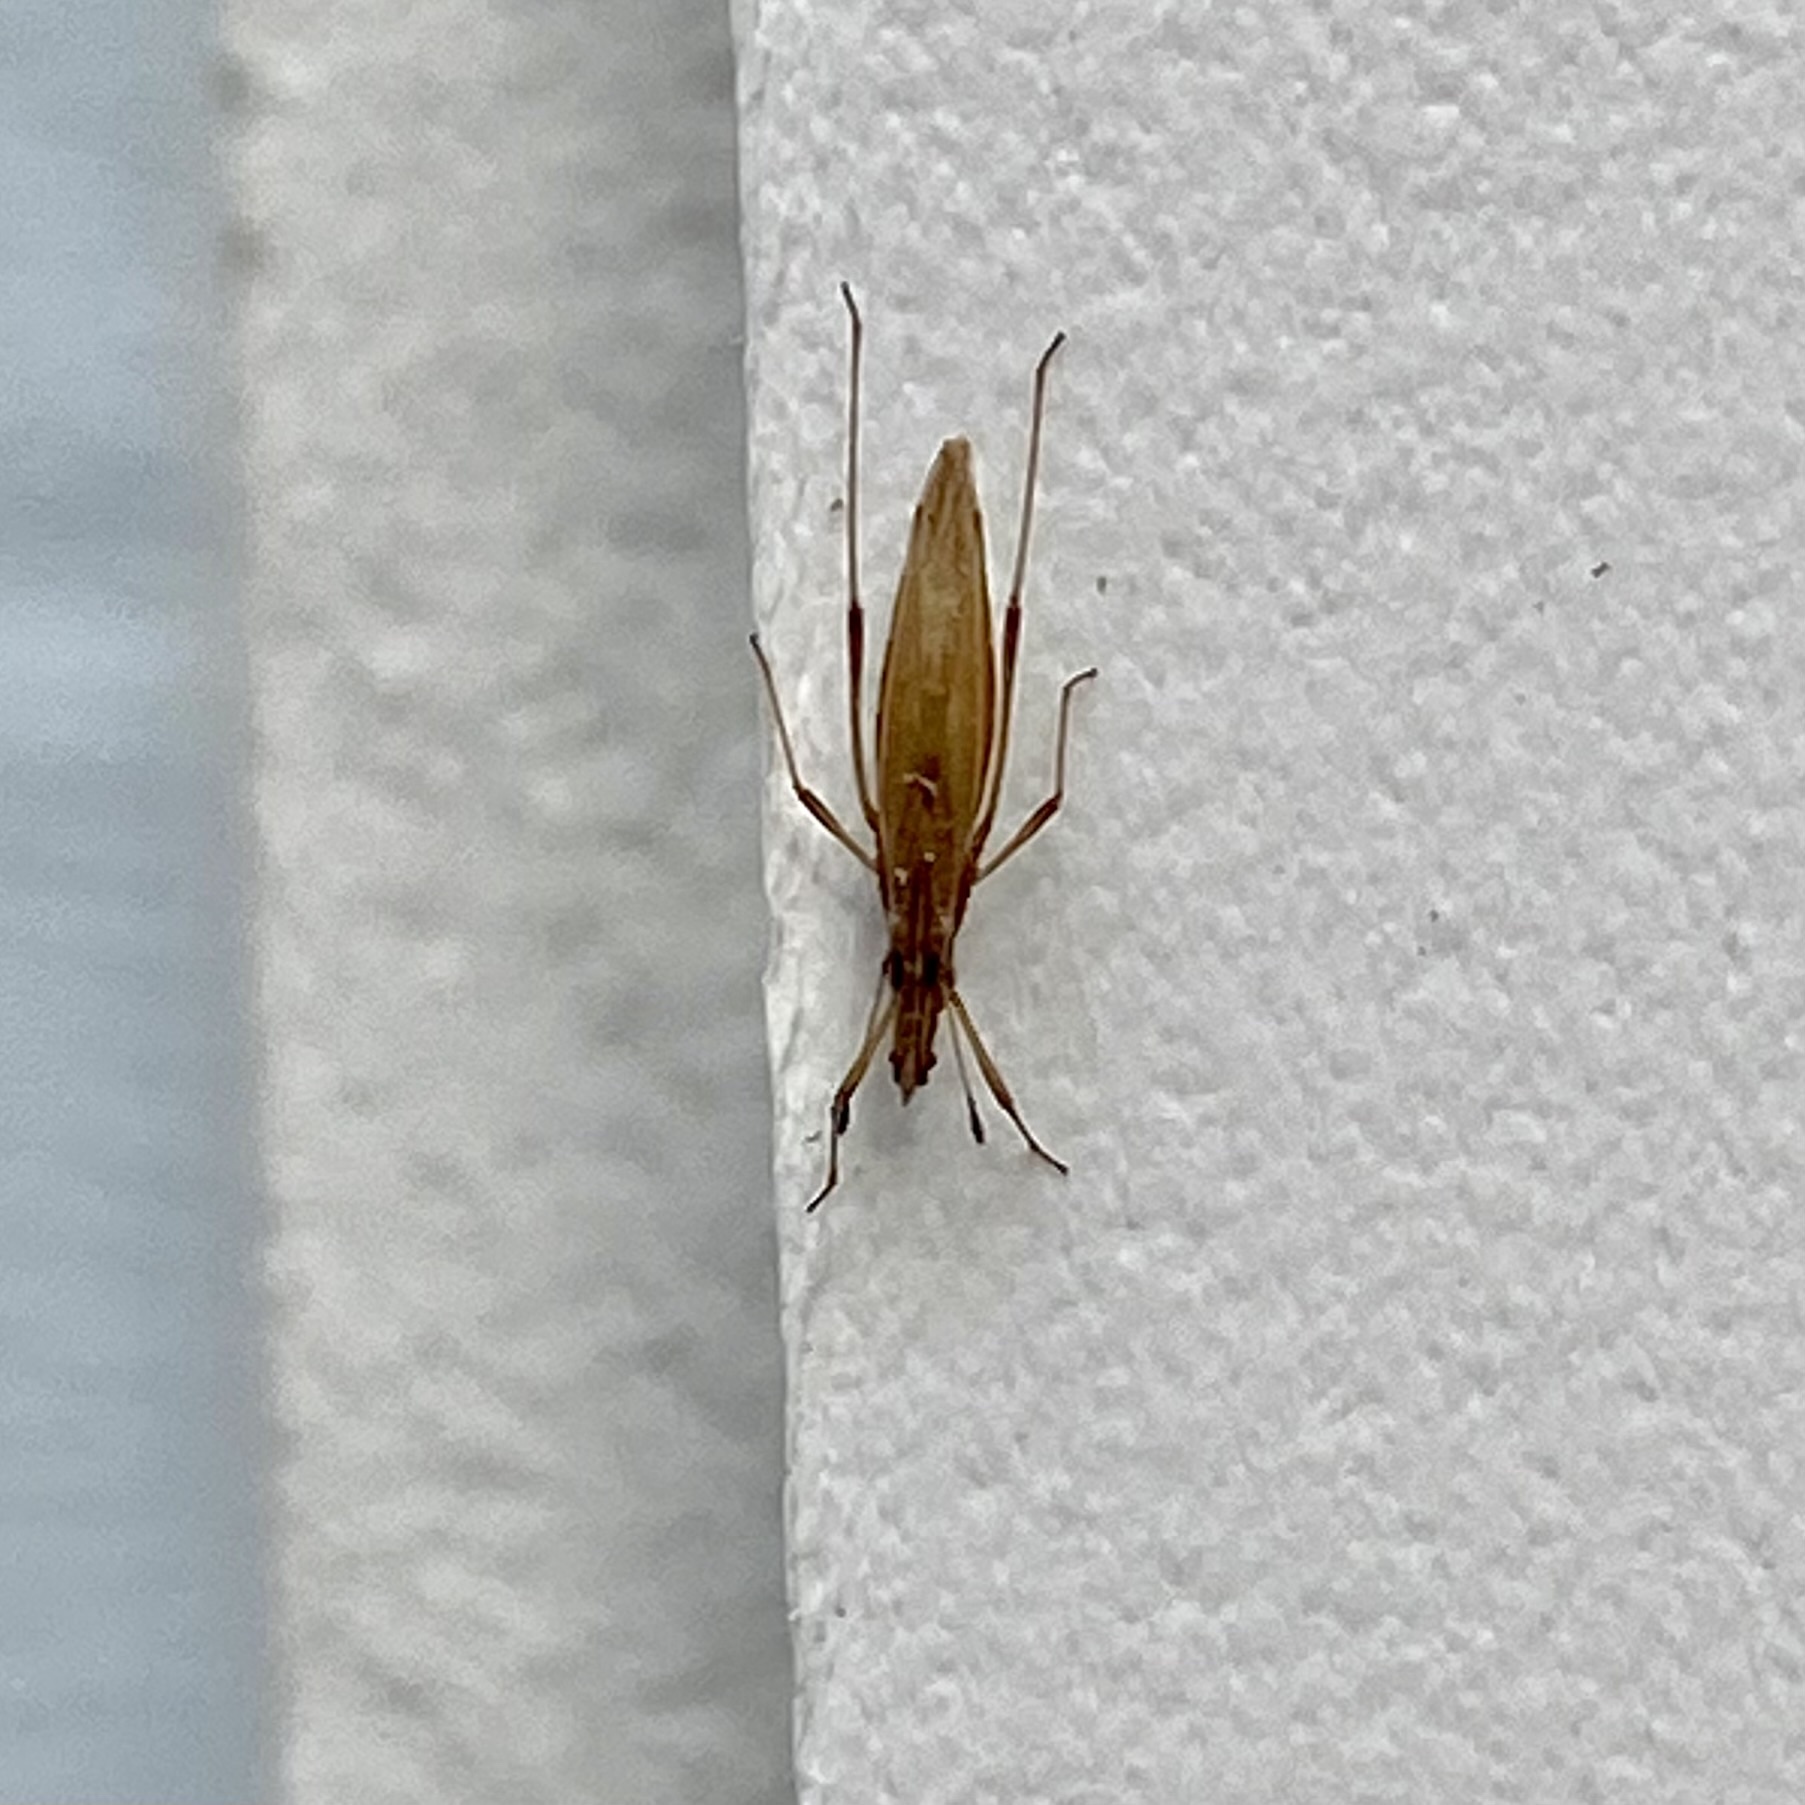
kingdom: Animalia
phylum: Arthropoda
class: Insecta
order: Hemiptera
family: Berytidae
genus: Berytinus
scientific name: Berytinus minor
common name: Stilt bug
